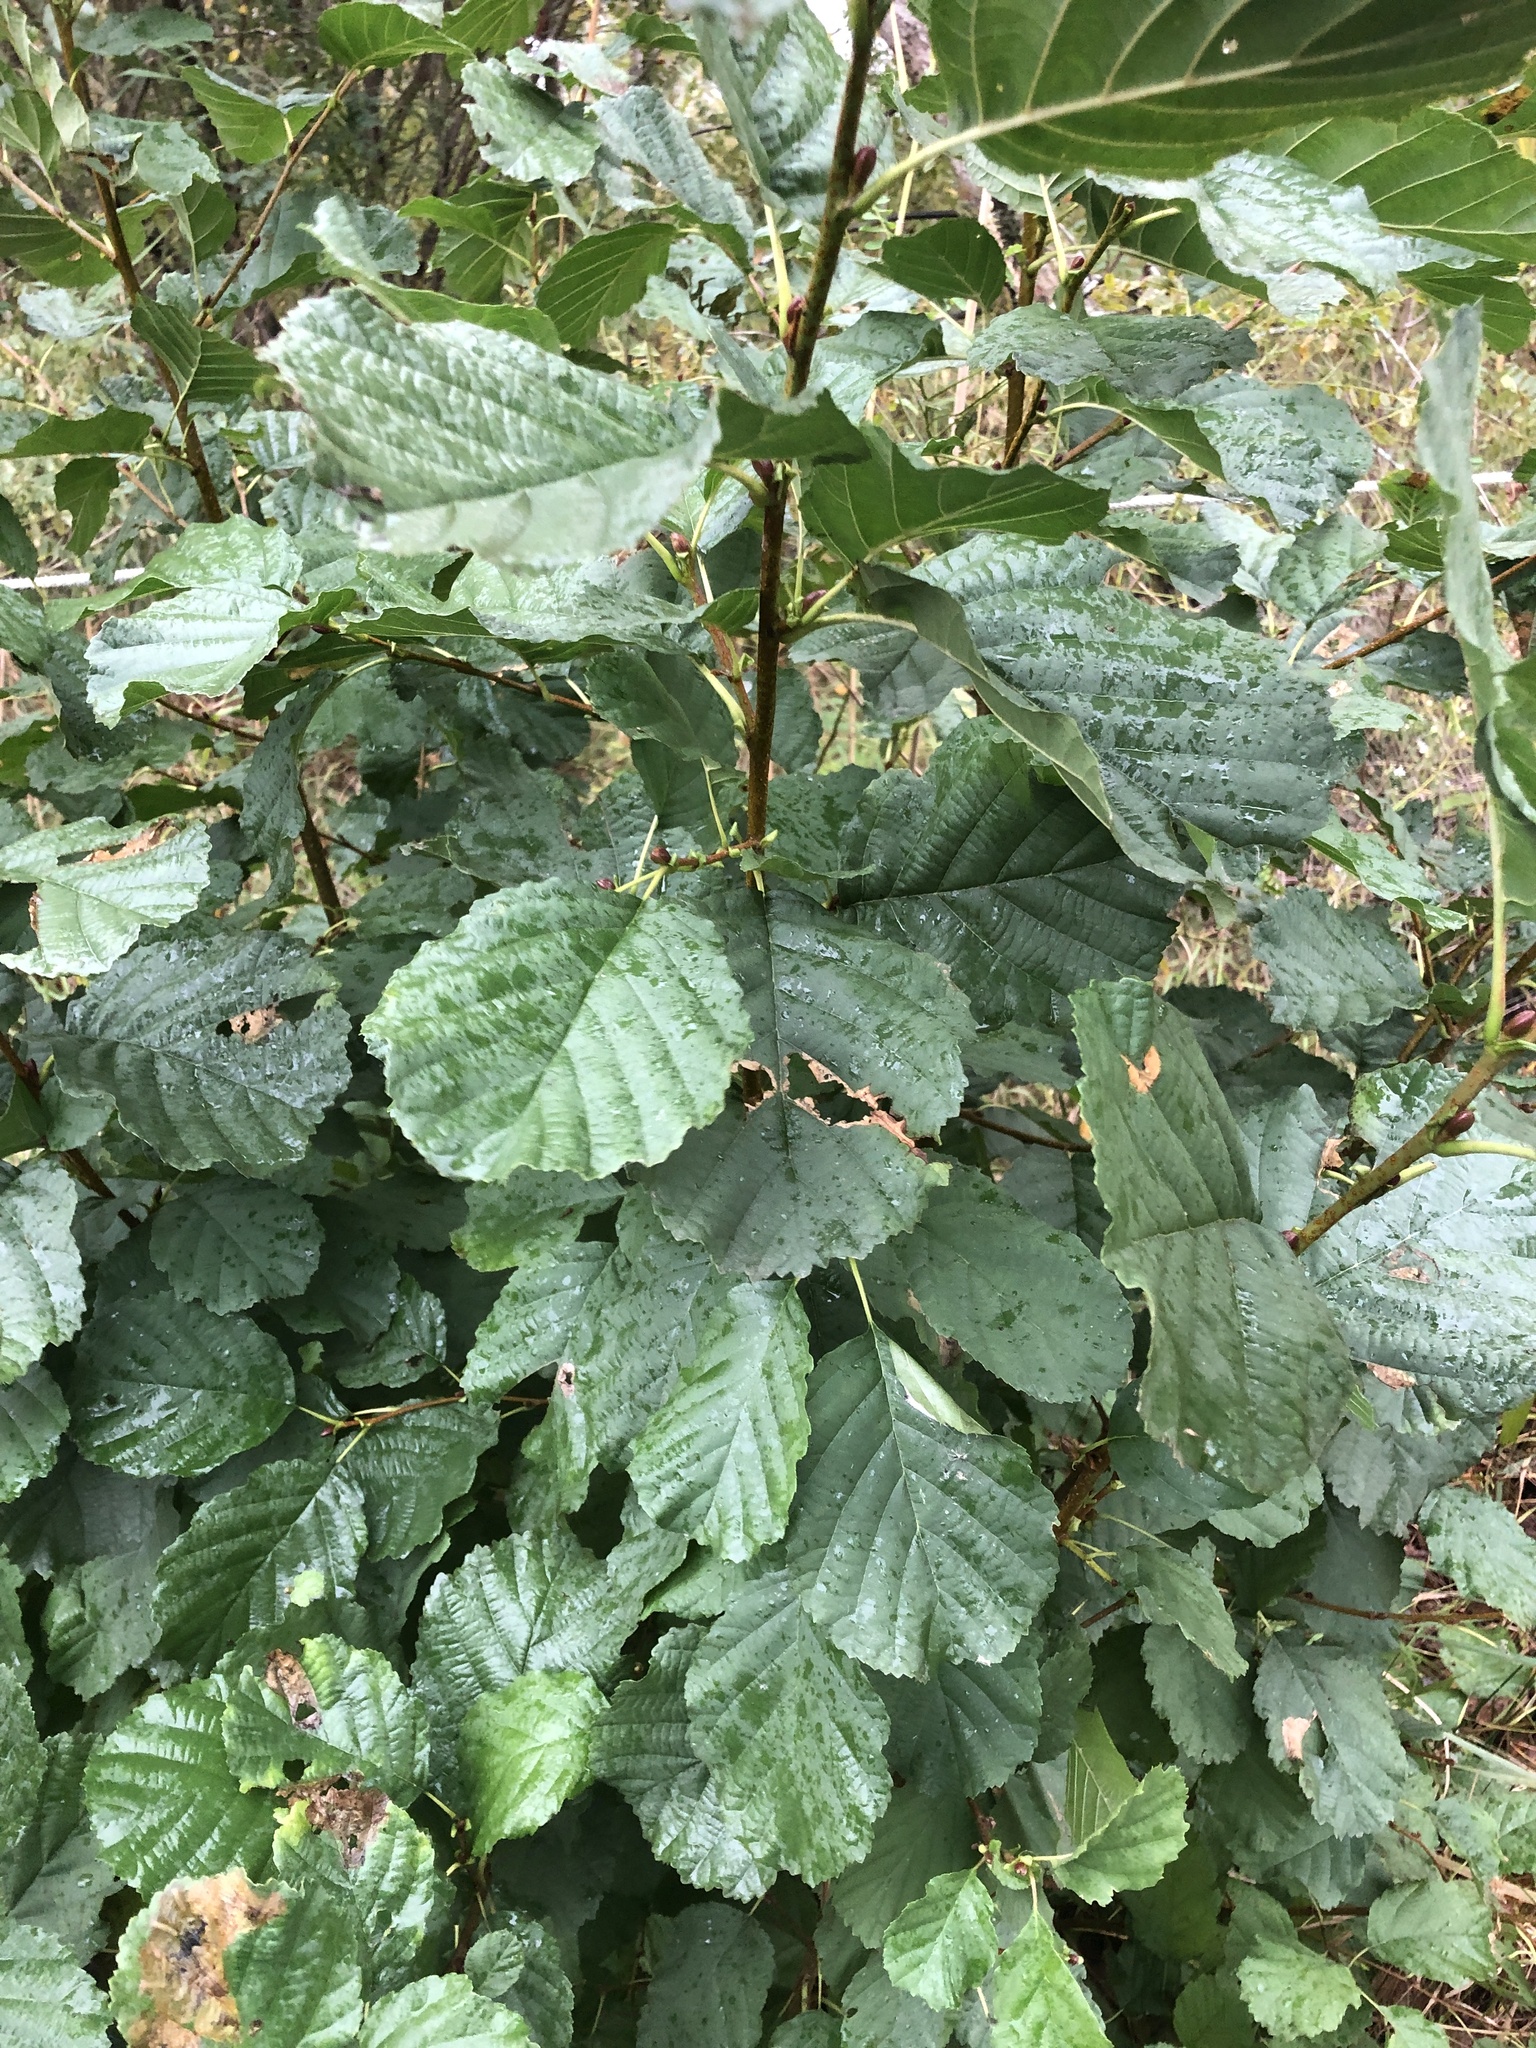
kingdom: Plantae
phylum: Tracheophyta
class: Magnoliopsida
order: Fagales
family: Betulaceae
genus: Alnus
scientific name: Alnus glutinosa
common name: Black alder
